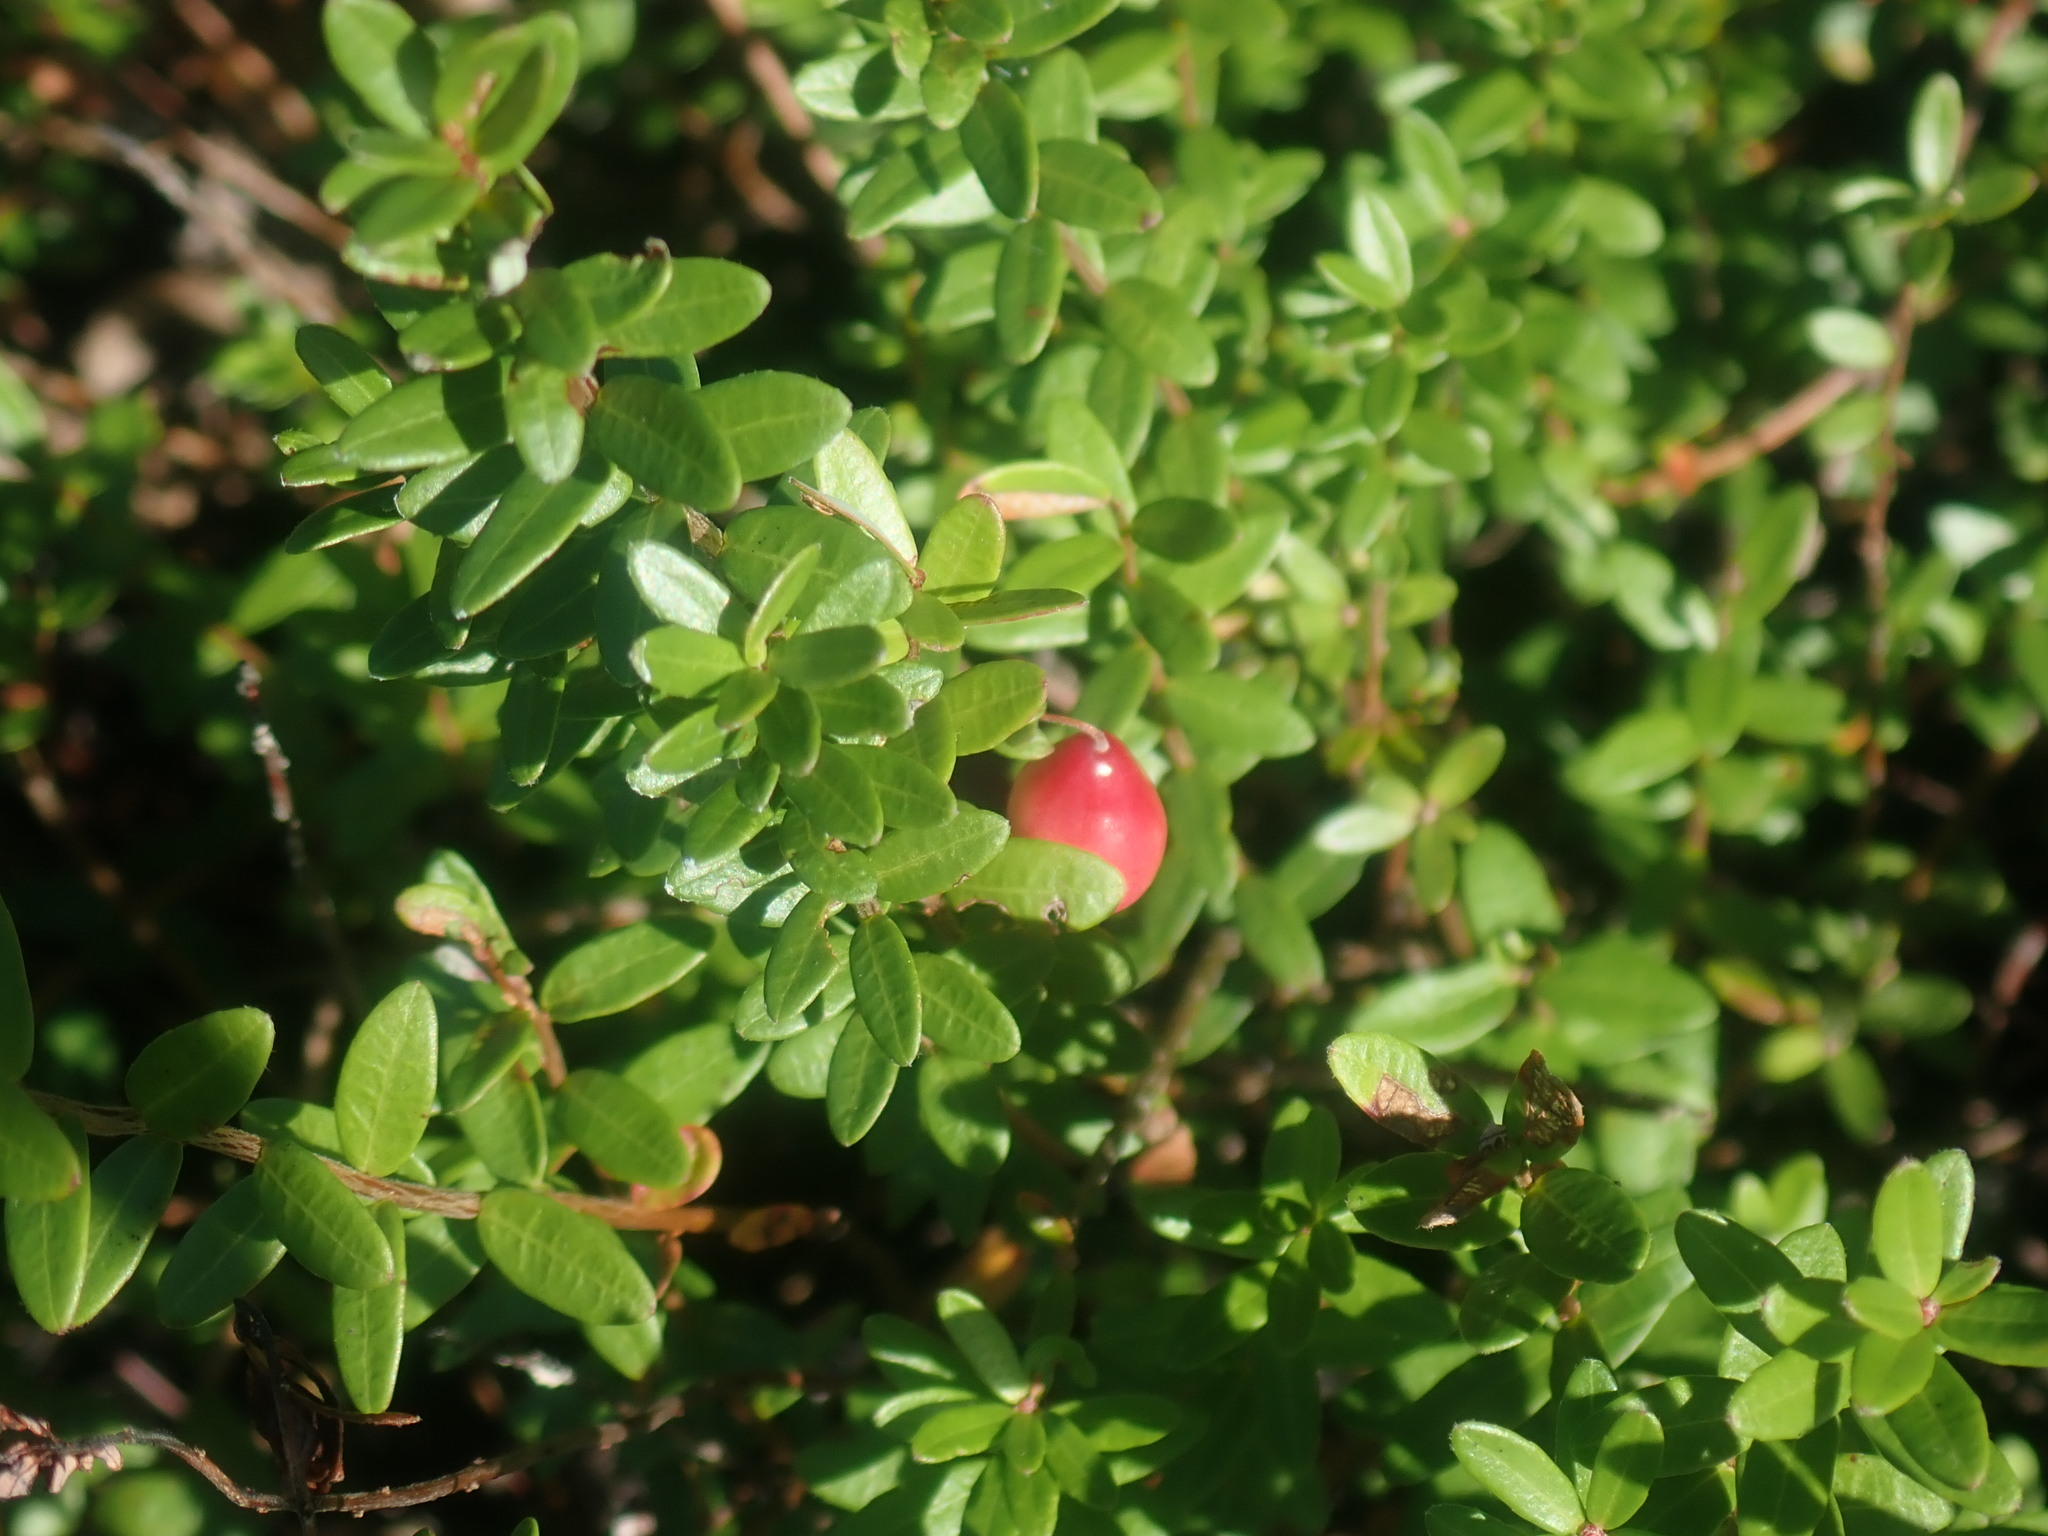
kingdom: Plantae
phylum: Tracheophyta
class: Magnoliopsida
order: Ericales
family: Ericaceae
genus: Vaccinium
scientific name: Vaccinium macrocarpon
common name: American cranberry
